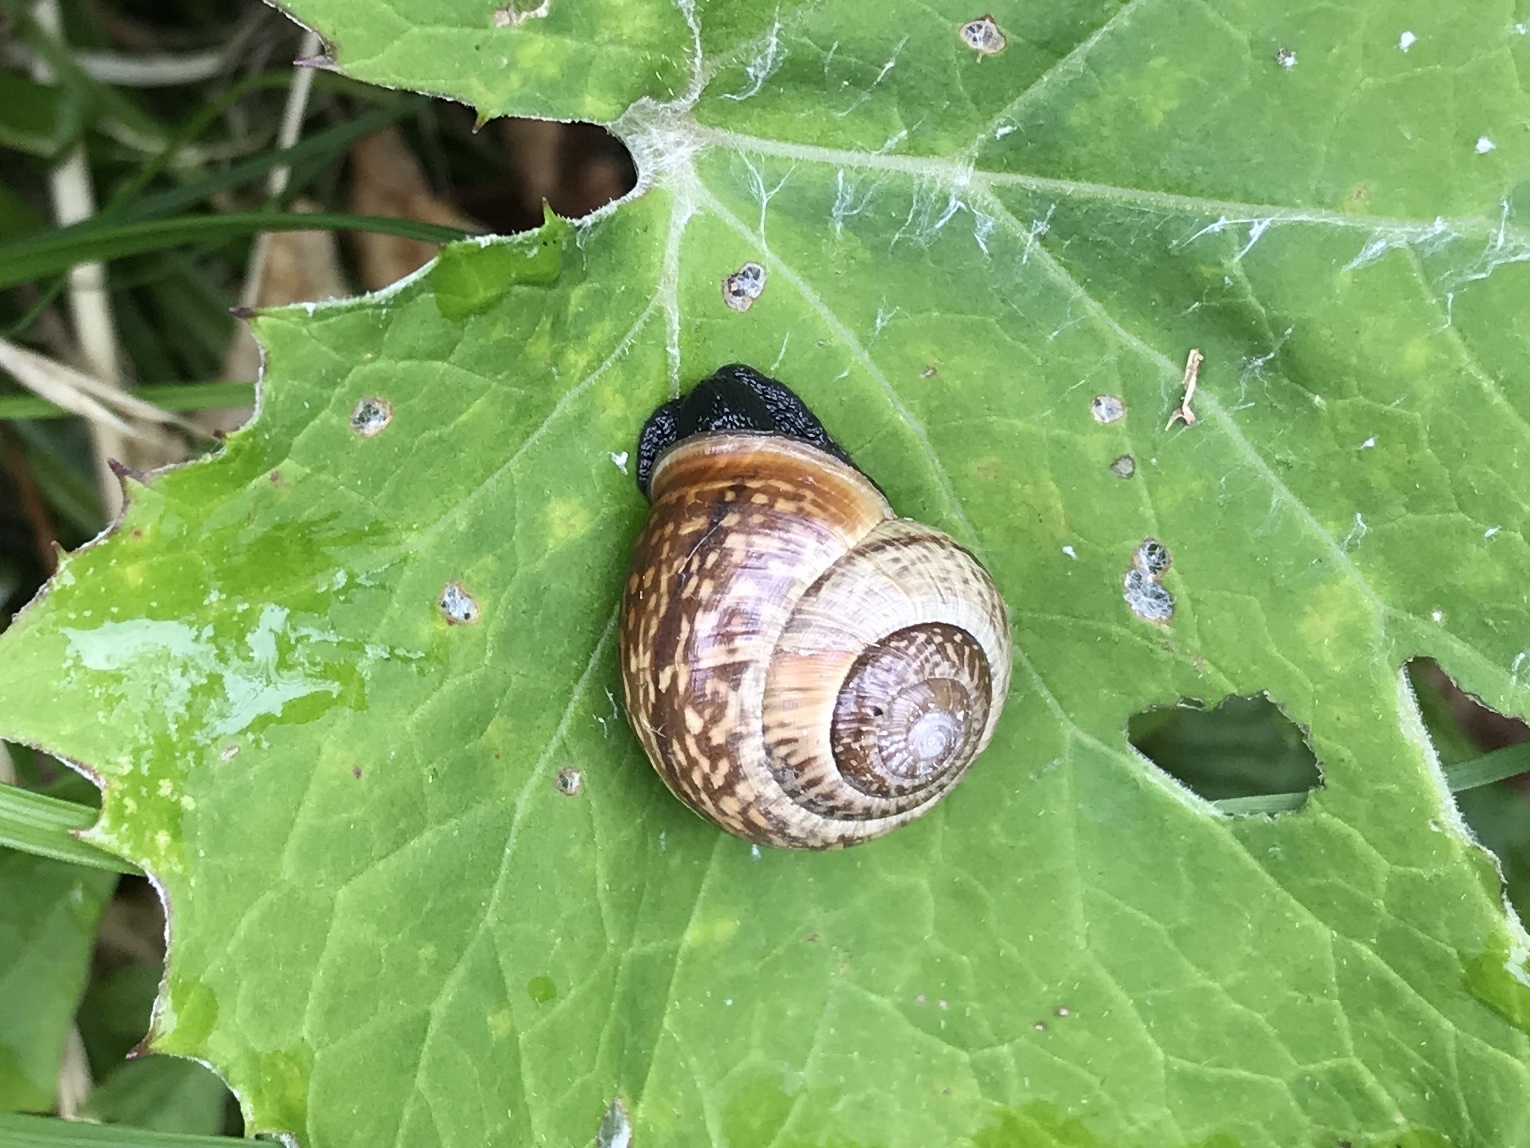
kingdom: Animalia
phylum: Mollusca
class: Gastropoda
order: Stylommatophora
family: Helicidae
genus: Arianta
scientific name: Arianta arbustorum
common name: Copse snail
